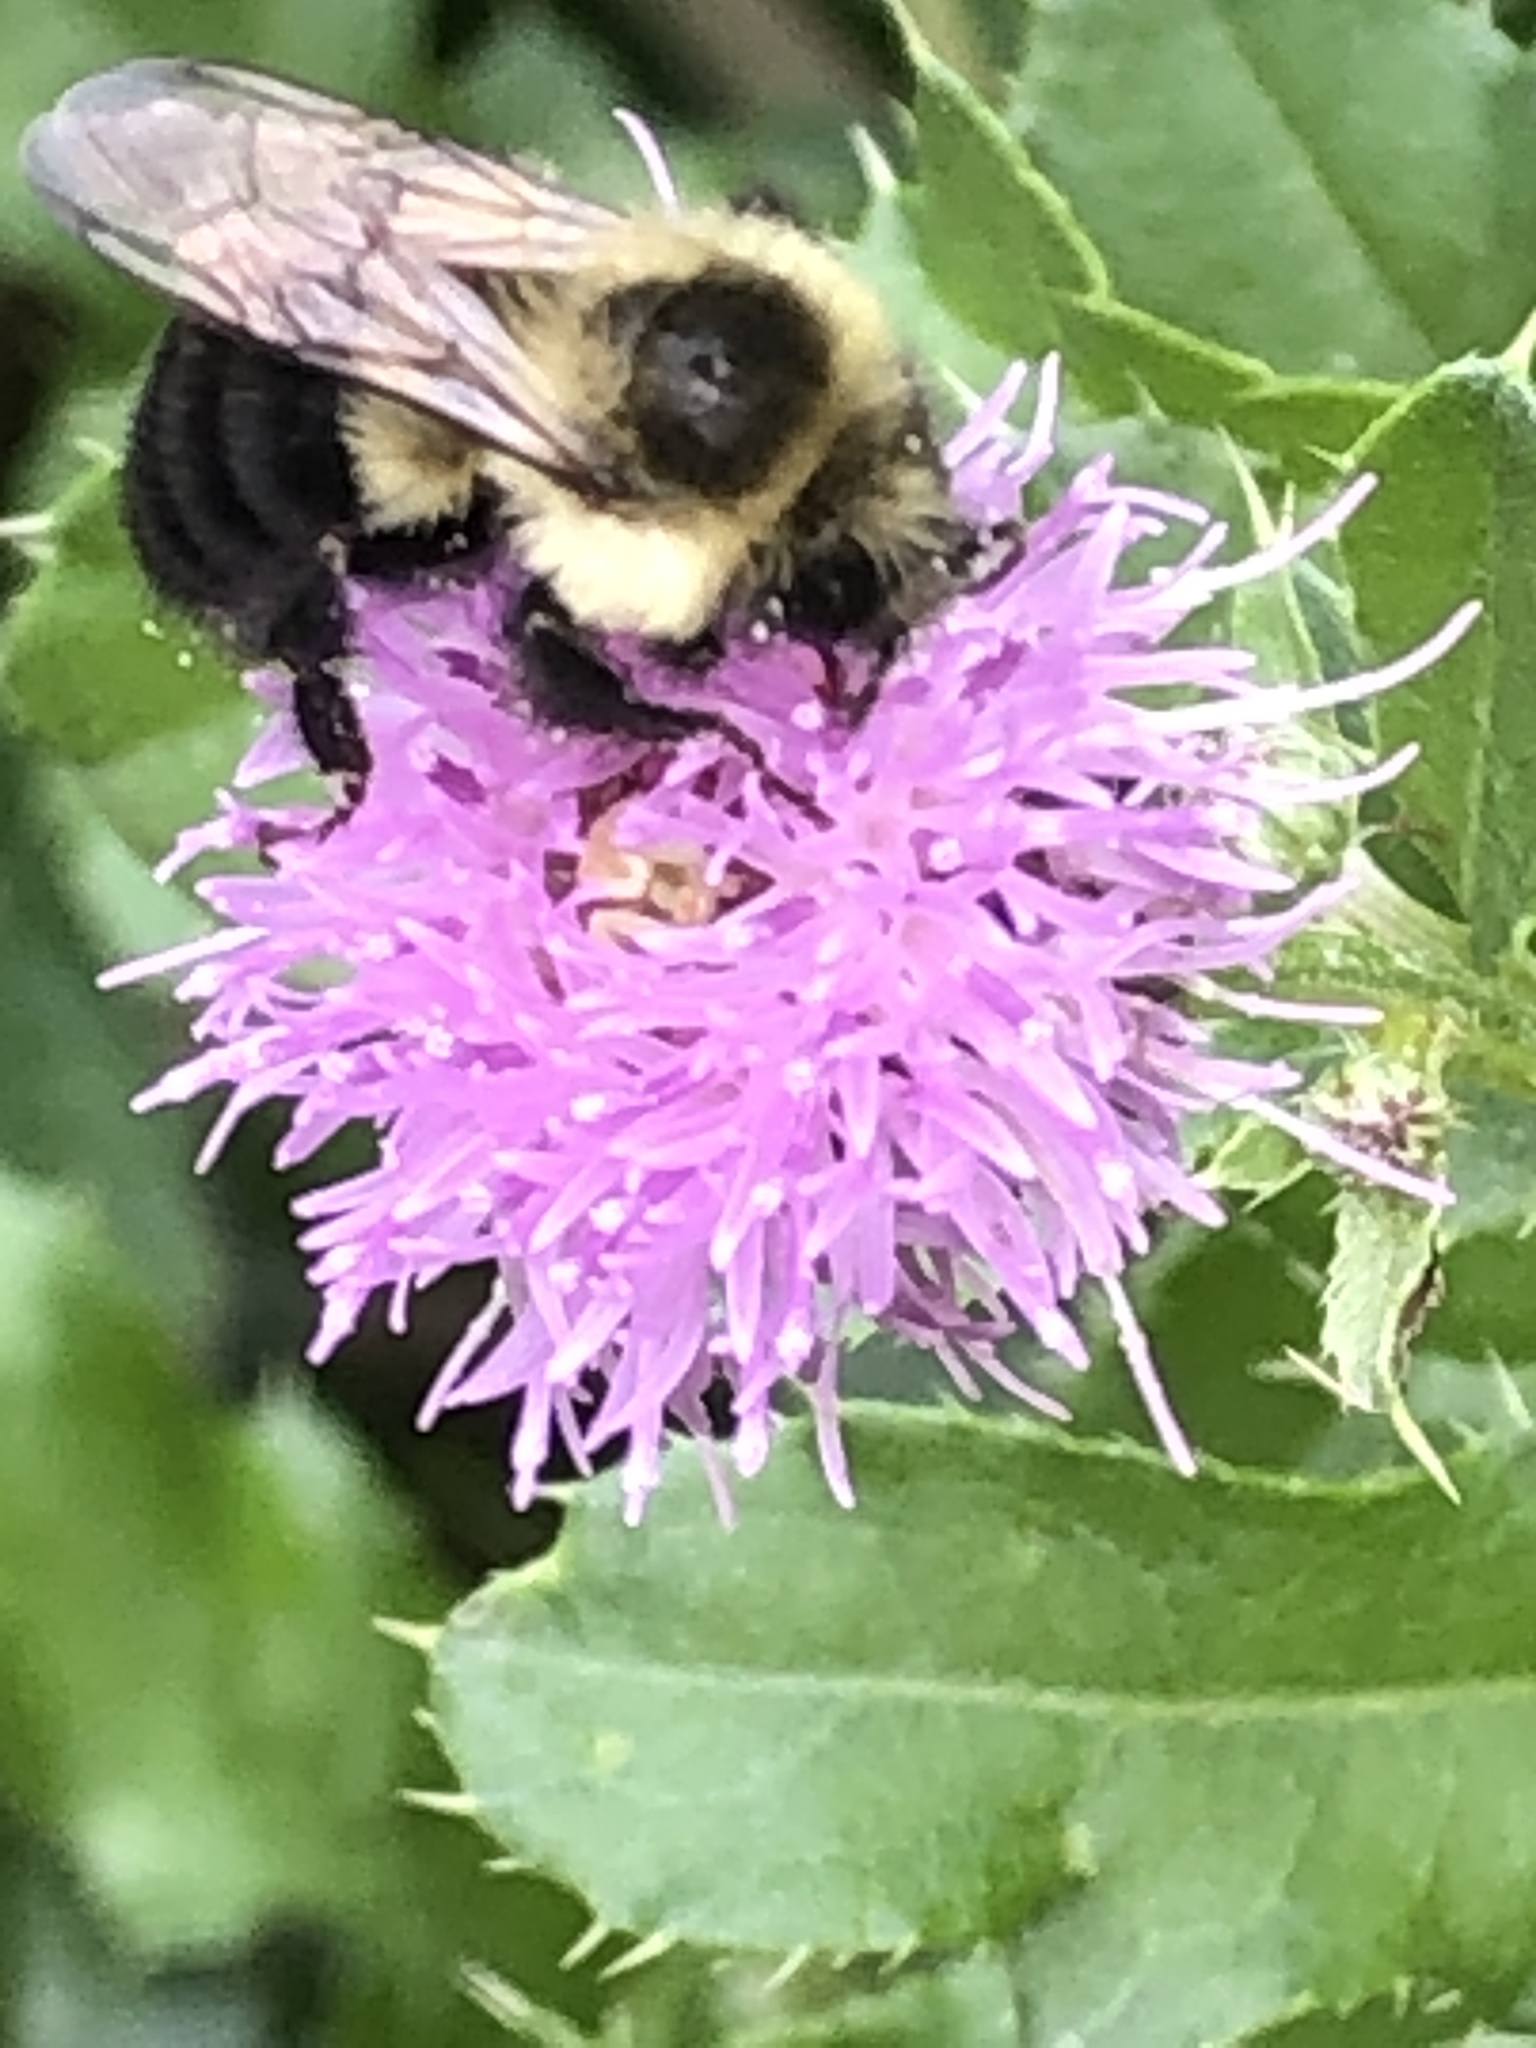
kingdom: Animalia
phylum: Arthropoda
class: Insecta
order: Hymenoptera
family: Apidae
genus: Bombus
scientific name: Bombus impatiens
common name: Common eastern bumble bee
